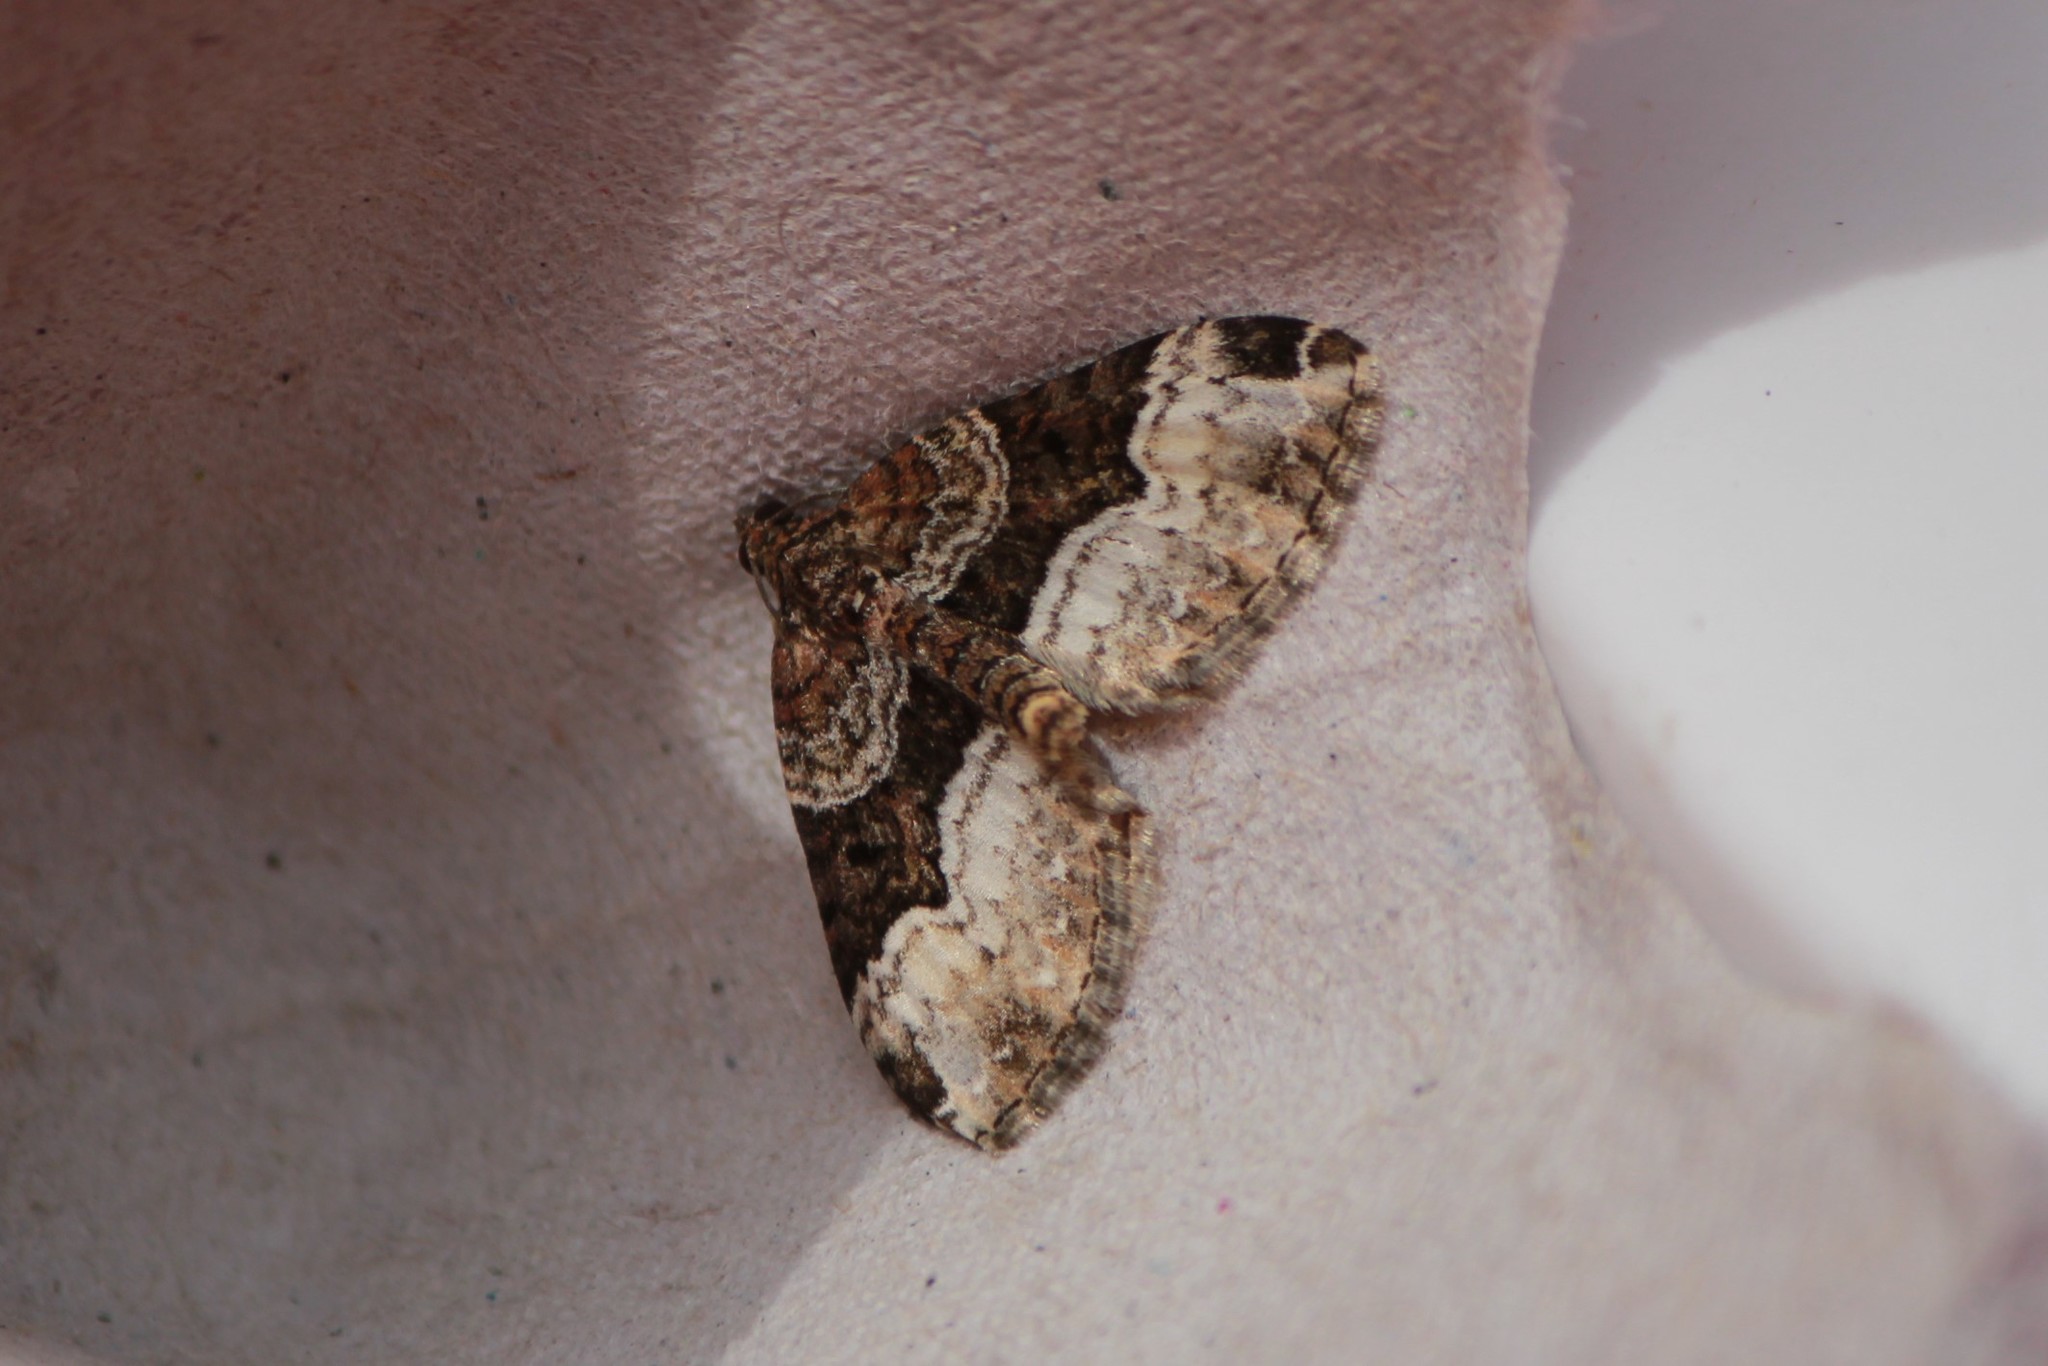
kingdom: Animalia
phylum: Arthropoda
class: Insecta
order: Lepidoptera
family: Geometridae
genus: Euphyia
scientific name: Euphyia intermediata
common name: Sharp-angled carpet
